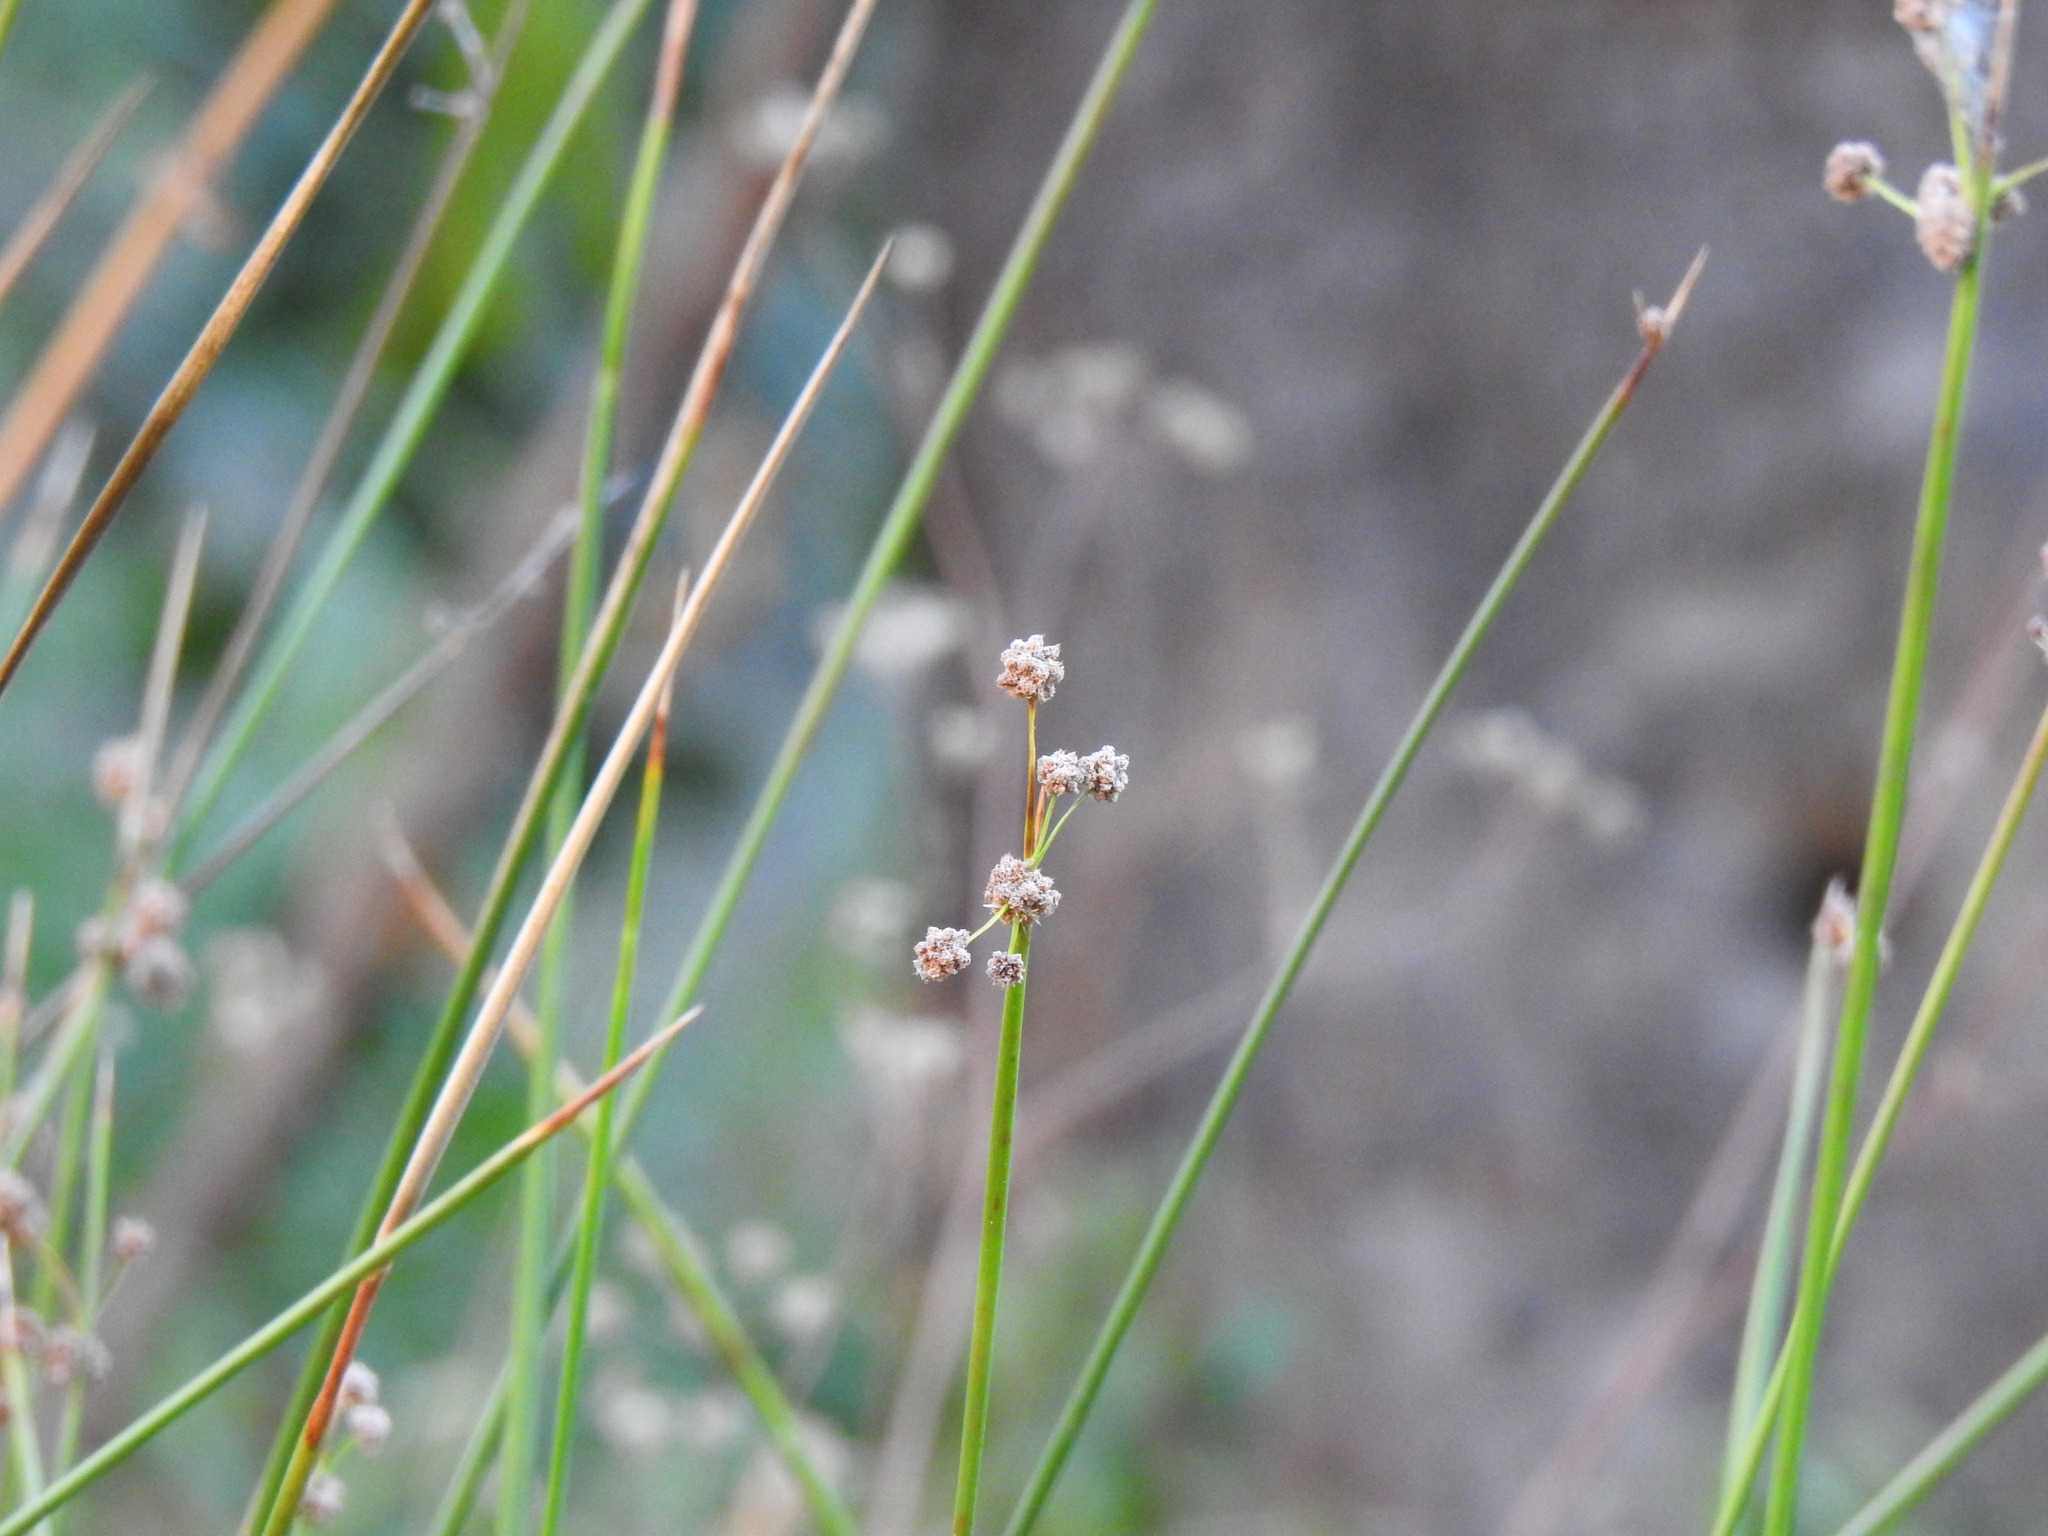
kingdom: Plantae
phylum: Tracheophyta
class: Liliopsida
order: Poales
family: Cyperaceae
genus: Scirpoides
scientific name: Scirpoides holoschoenus
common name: Round-headed club-rush
